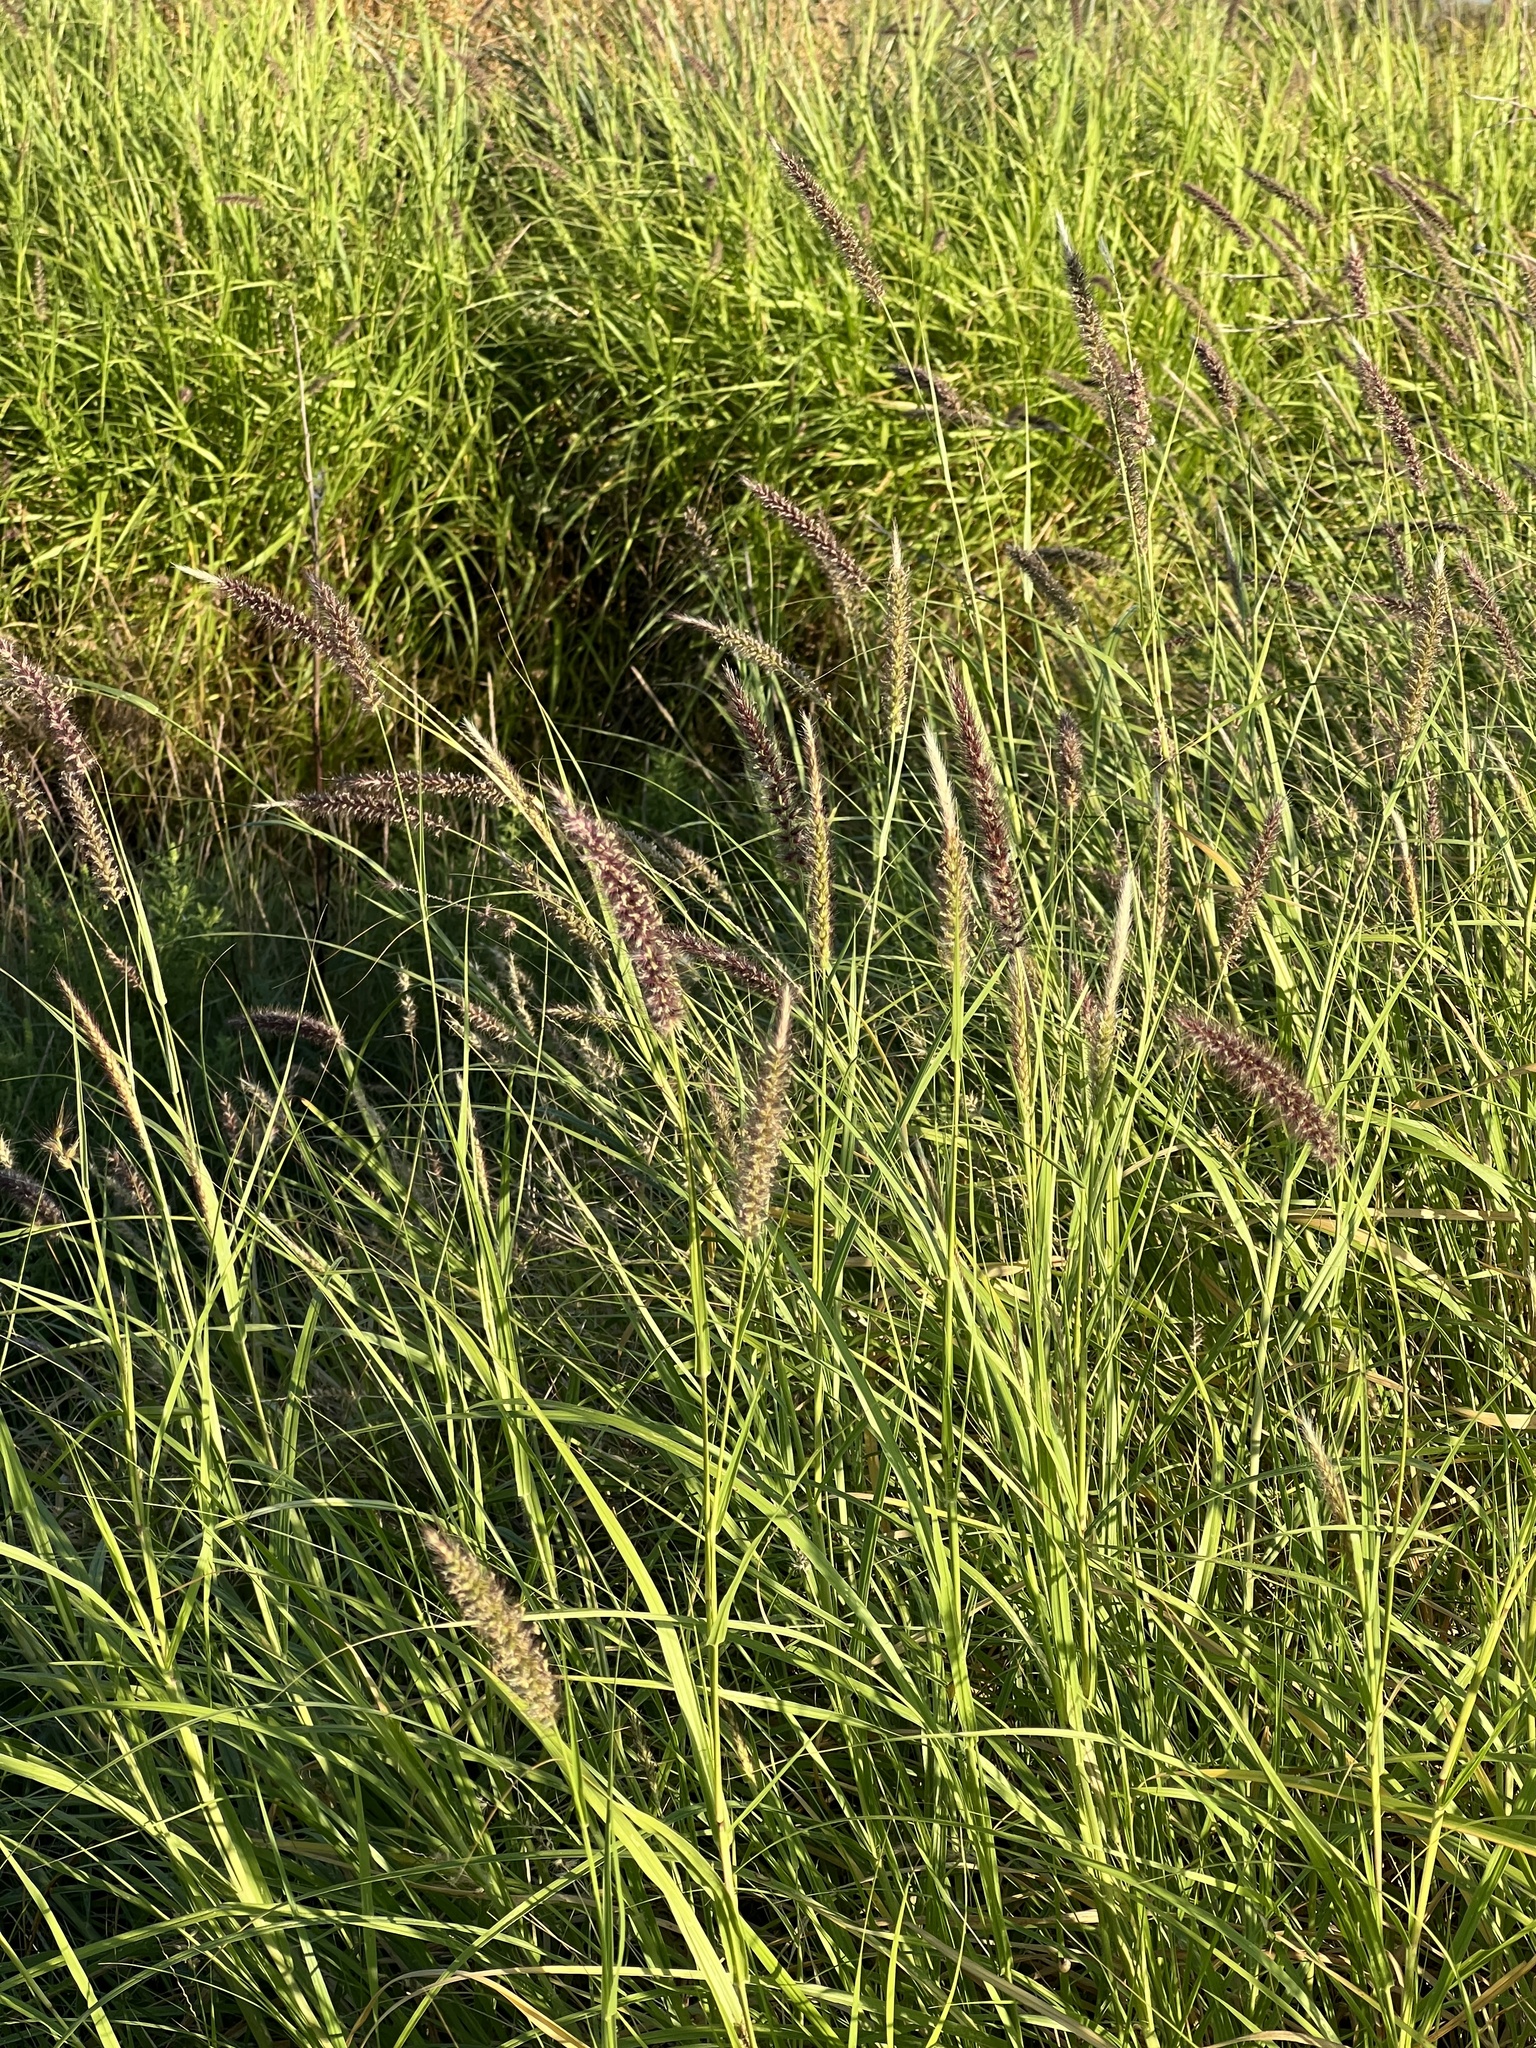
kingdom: Plantae
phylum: Tracheophyta
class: Liliopsida
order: Poales
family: Poaceae
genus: Cenchrus
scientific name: Cenchrus ciliaris
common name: Buffelgrass
